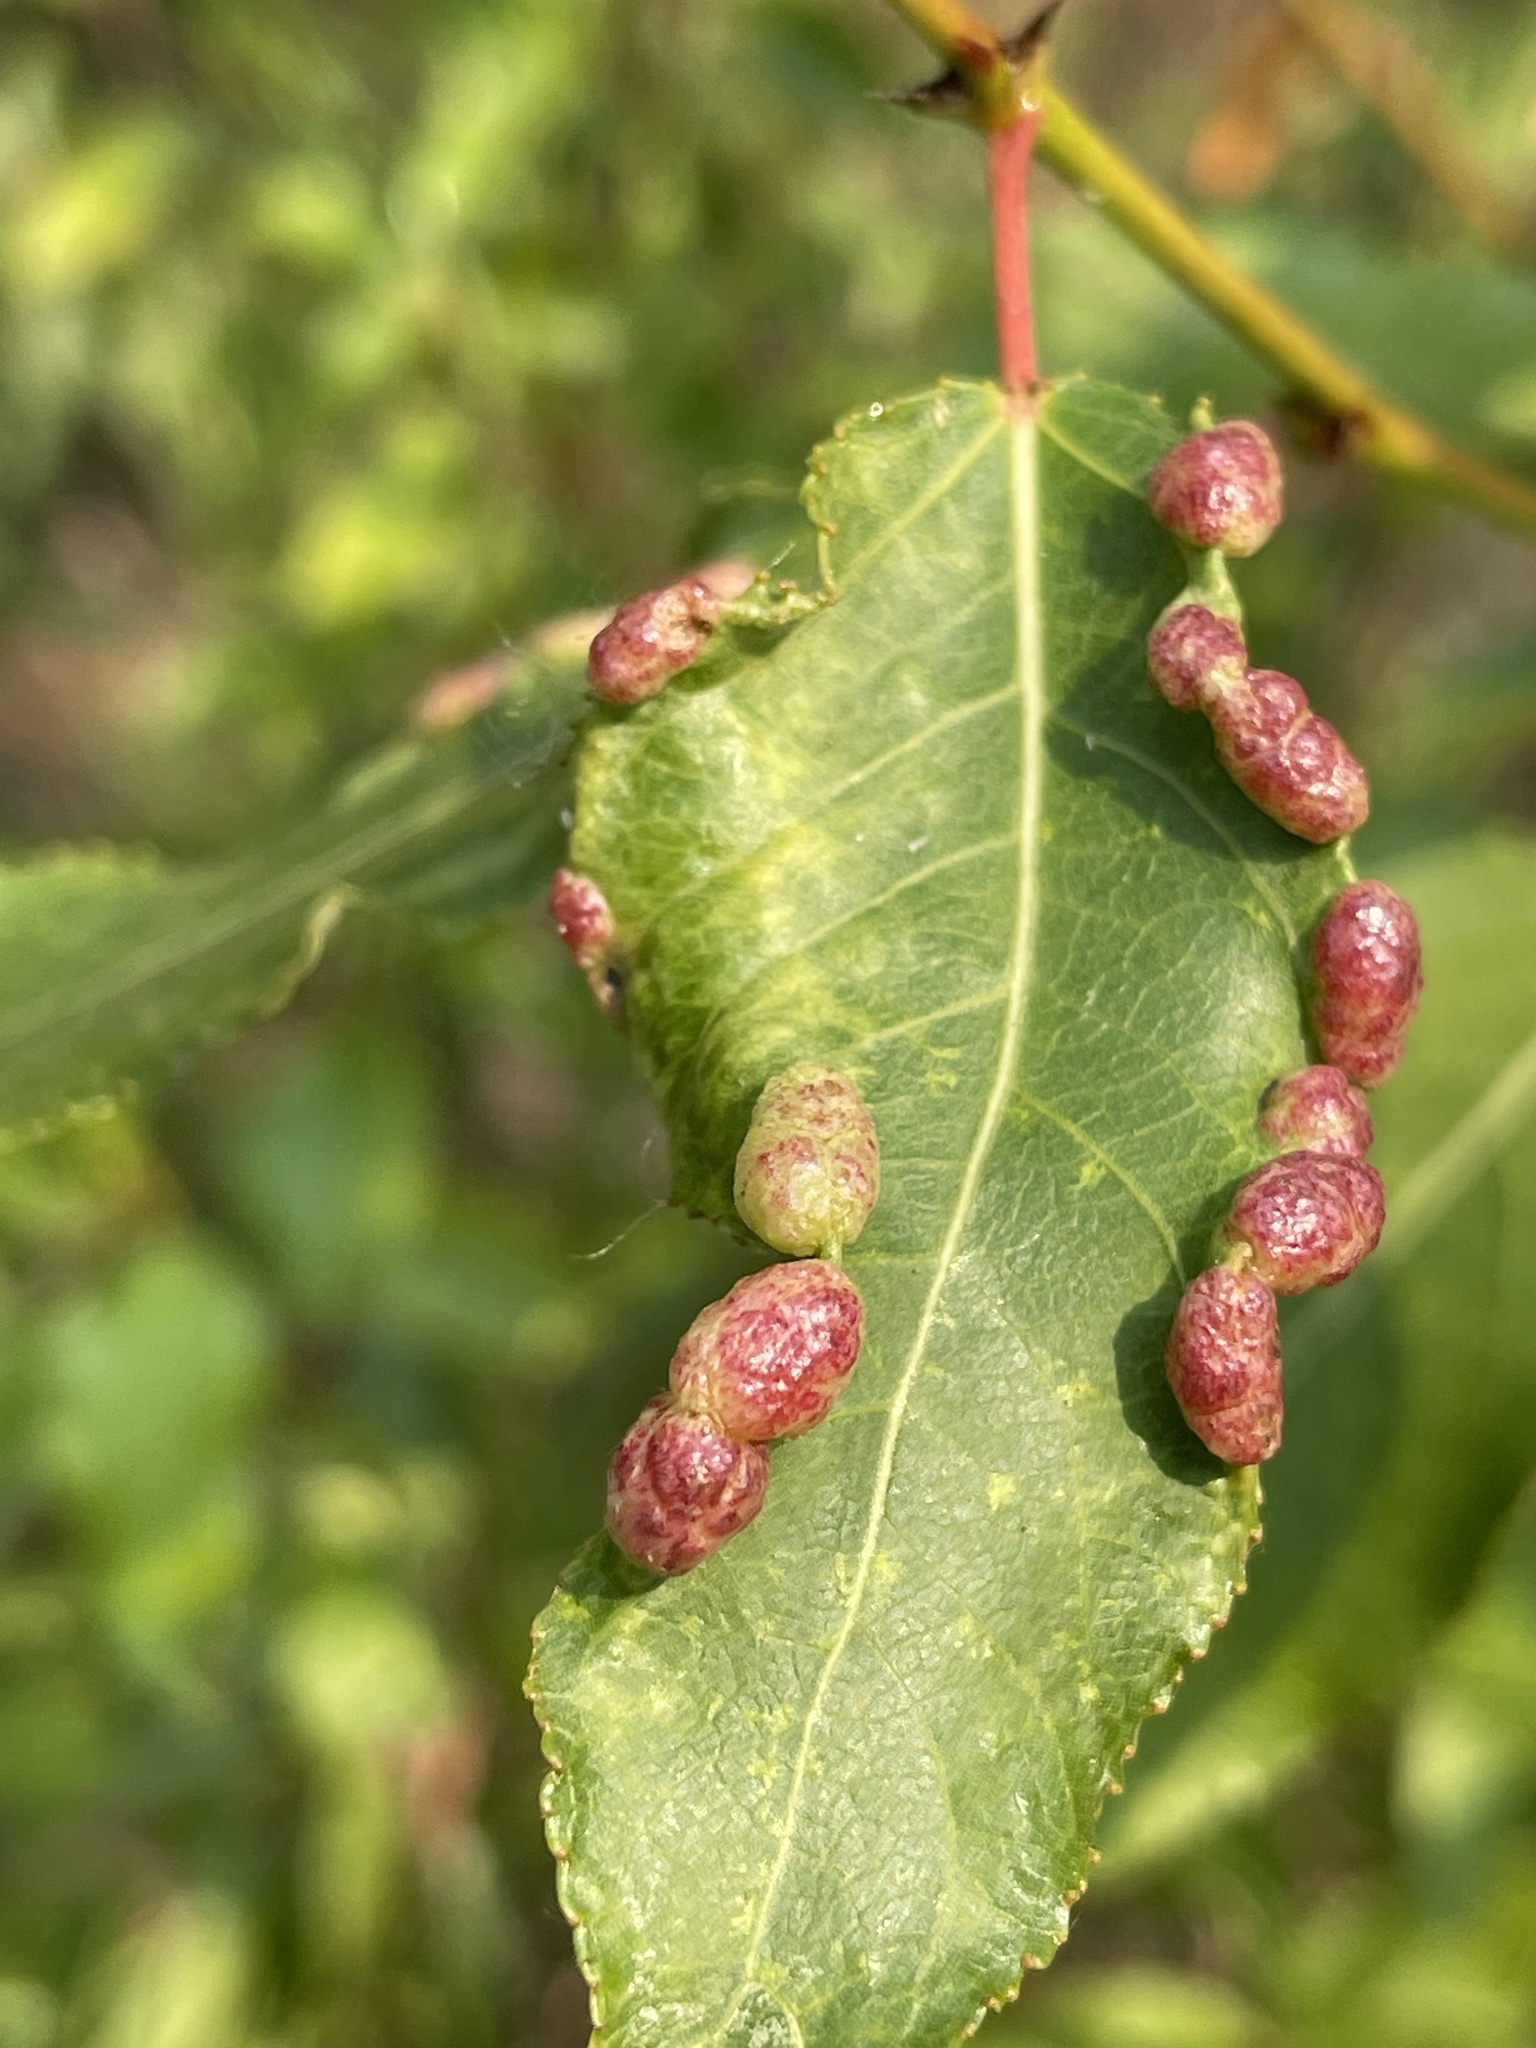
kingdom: Animalia
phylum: Arthropoda
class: Insecta
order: Hemiptera
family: Aphididae
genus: Thecabius
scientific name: Thecabius populimonilis
